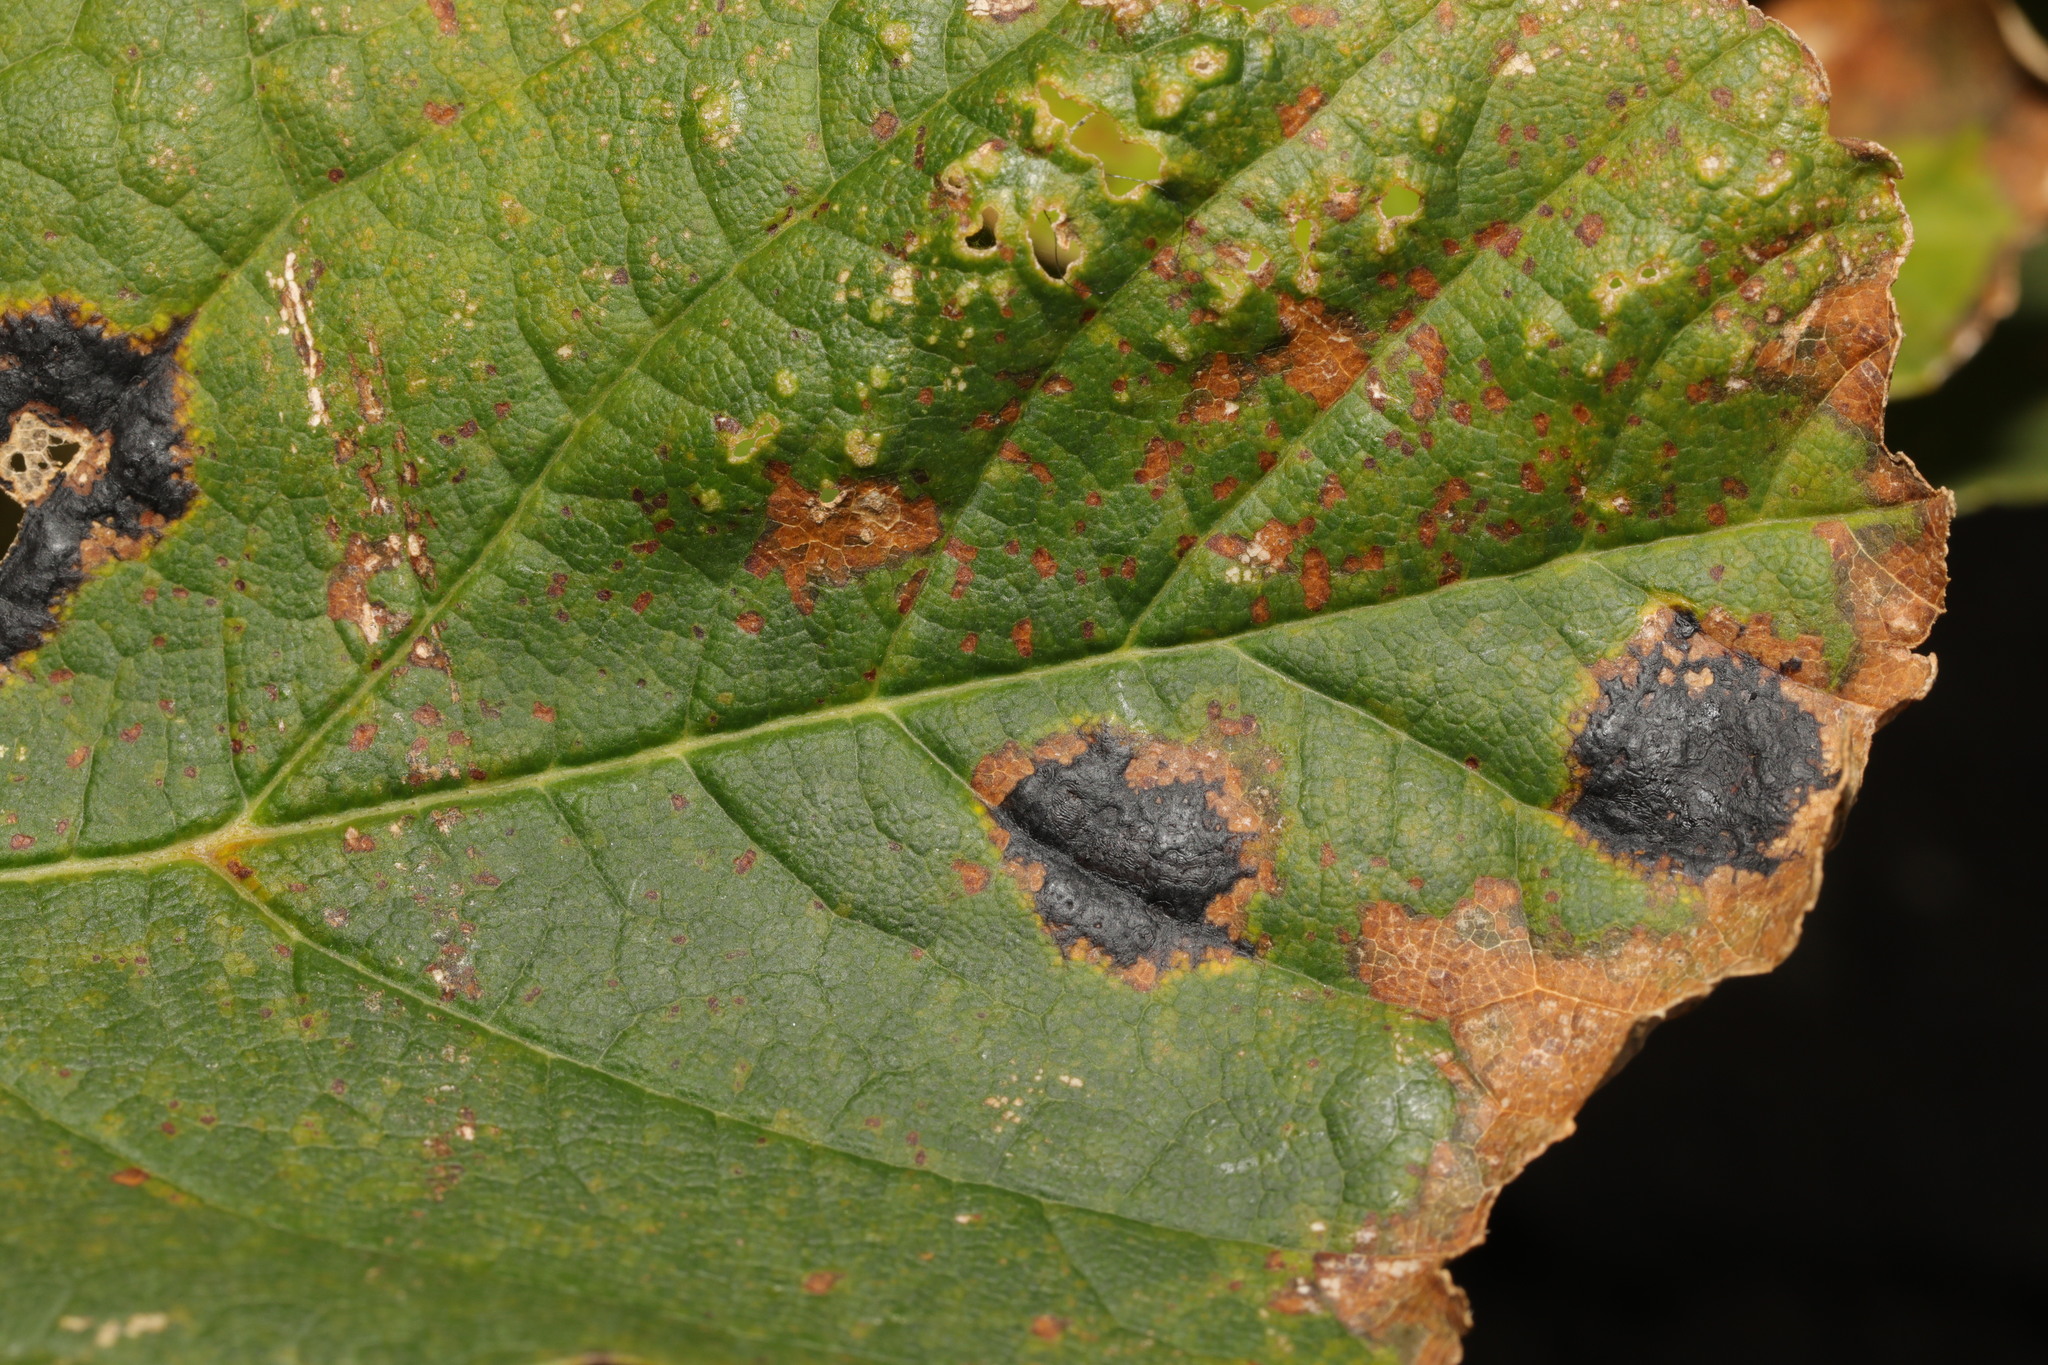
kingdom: Fungi
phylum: Ascomycota
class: Leotiomycetes
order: Rhytismatales
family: Rhytismataceae
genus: Rhytisma
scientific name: Rhytisma acerinum
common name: European tar spot
